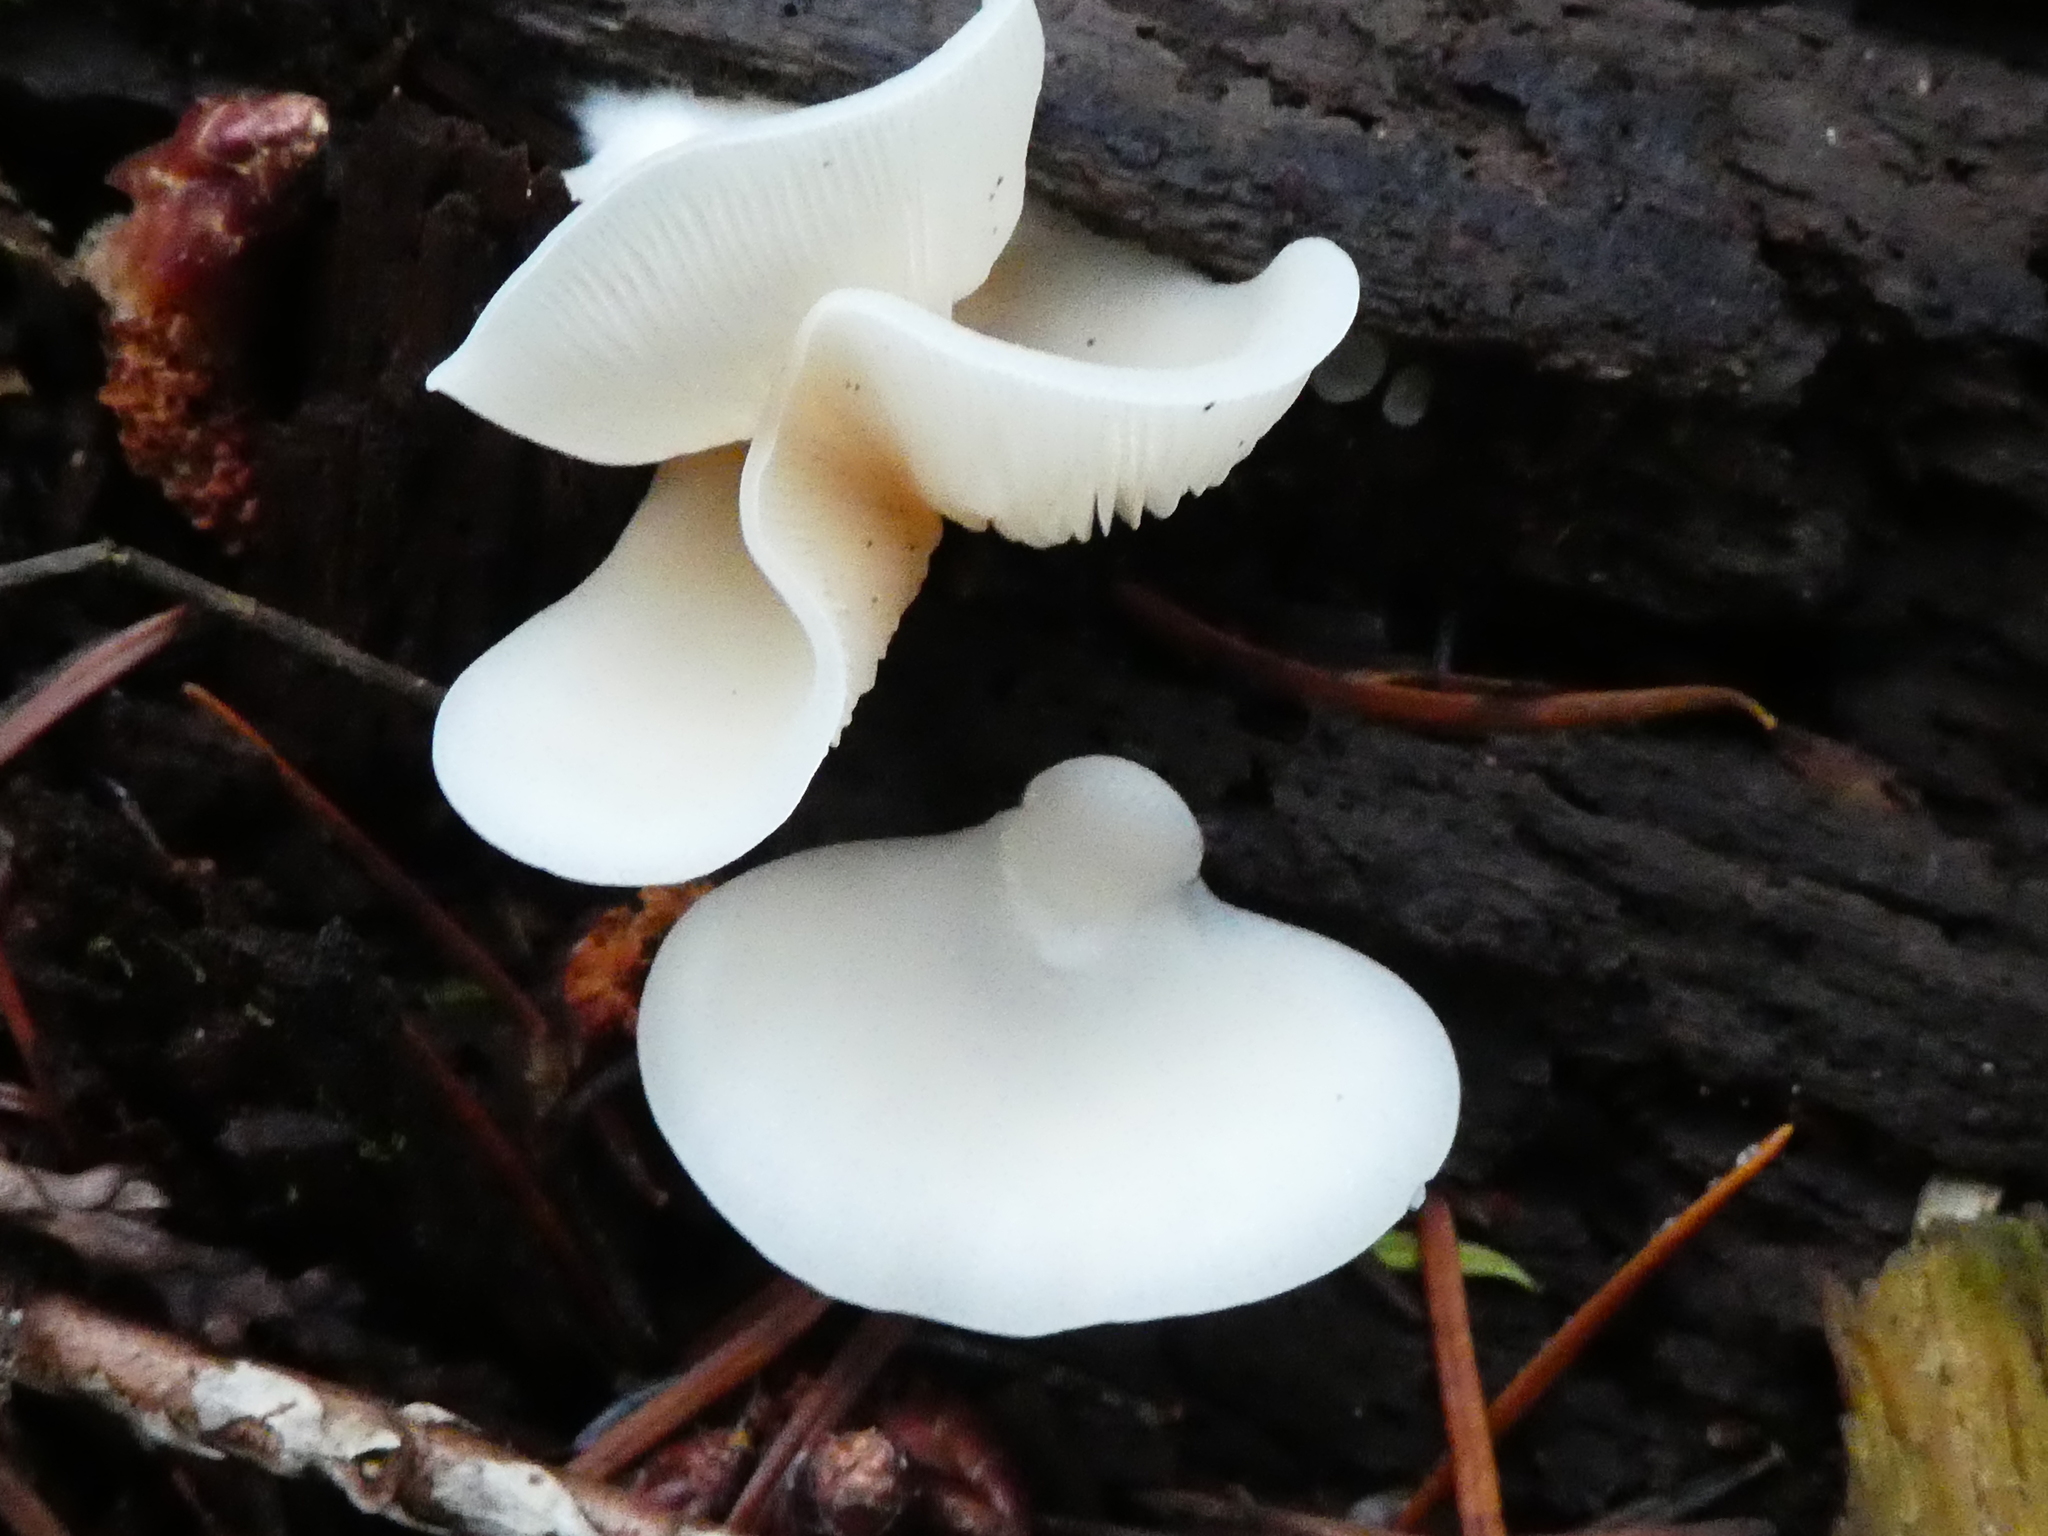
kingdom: Fungi
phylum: Basidiomycota
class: Agaricomycetes
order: Agaricales
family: Marasmiaceae
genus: Pleurocybella
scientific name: Pleurocybella porrigens
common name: Angel's wings
